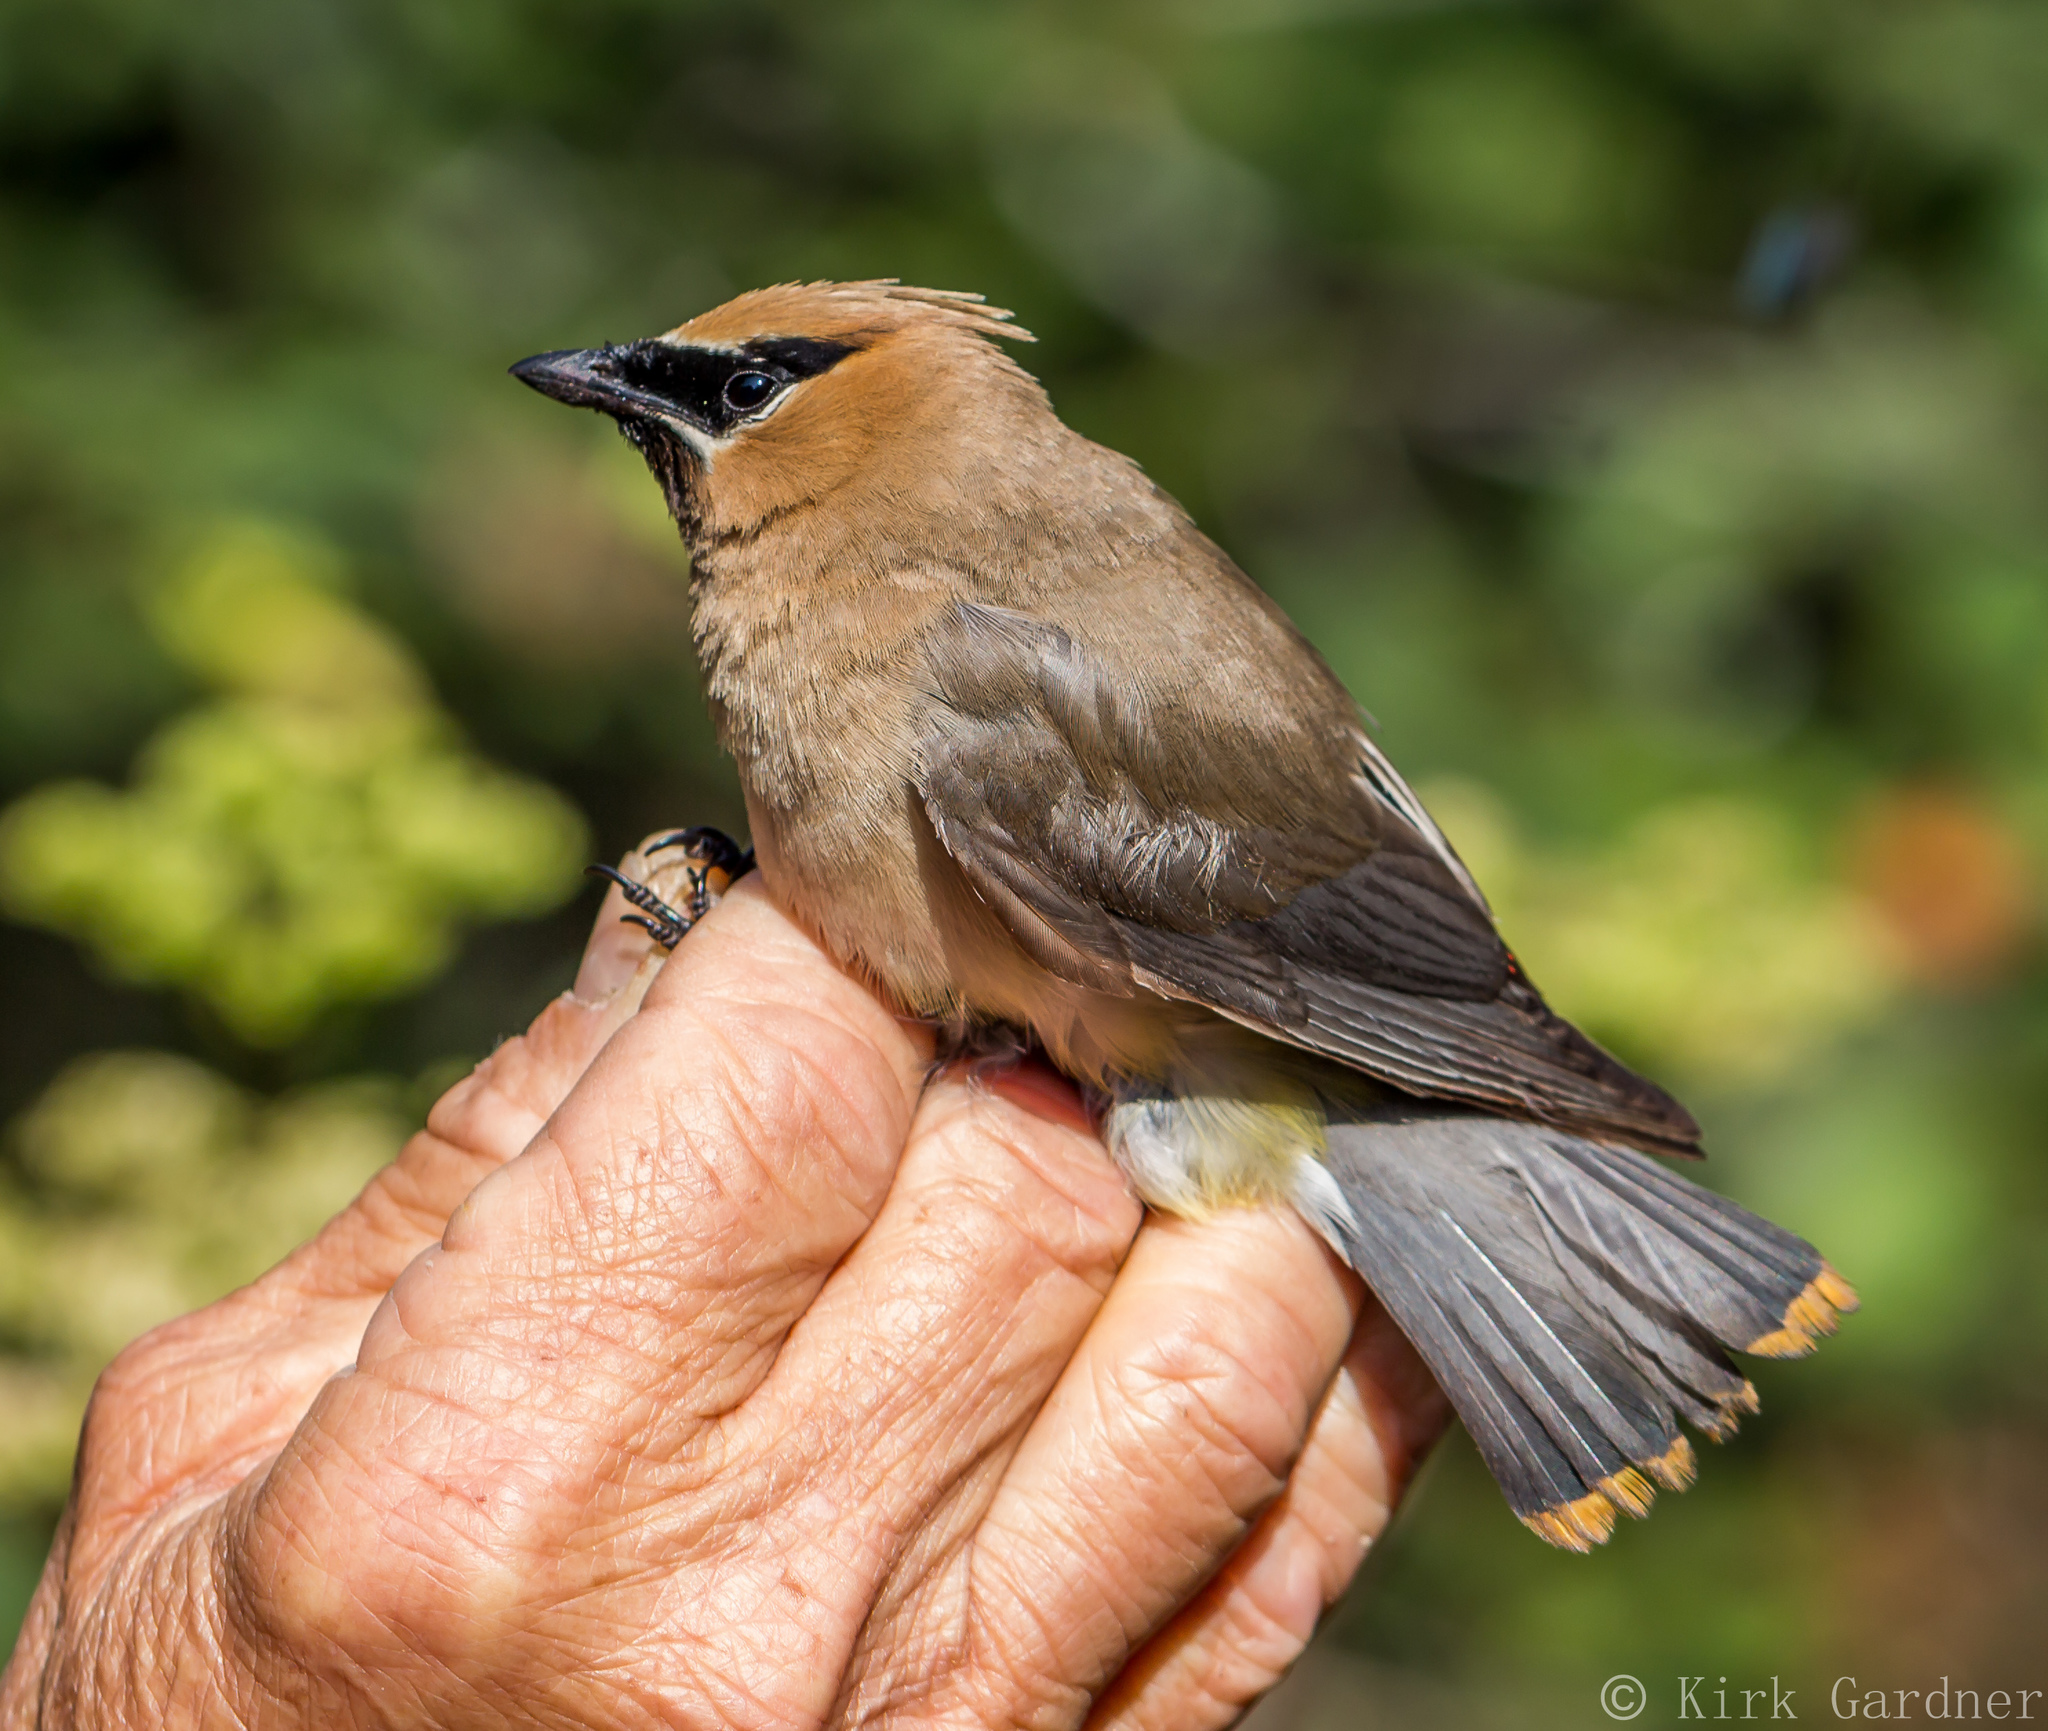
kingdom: Animalia
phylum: Chordata
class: Aves
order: Passeriformes
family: Bombycillidae
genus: Bombycilla
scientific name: Bombycilla cedrorum
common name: Cedar waxwing
